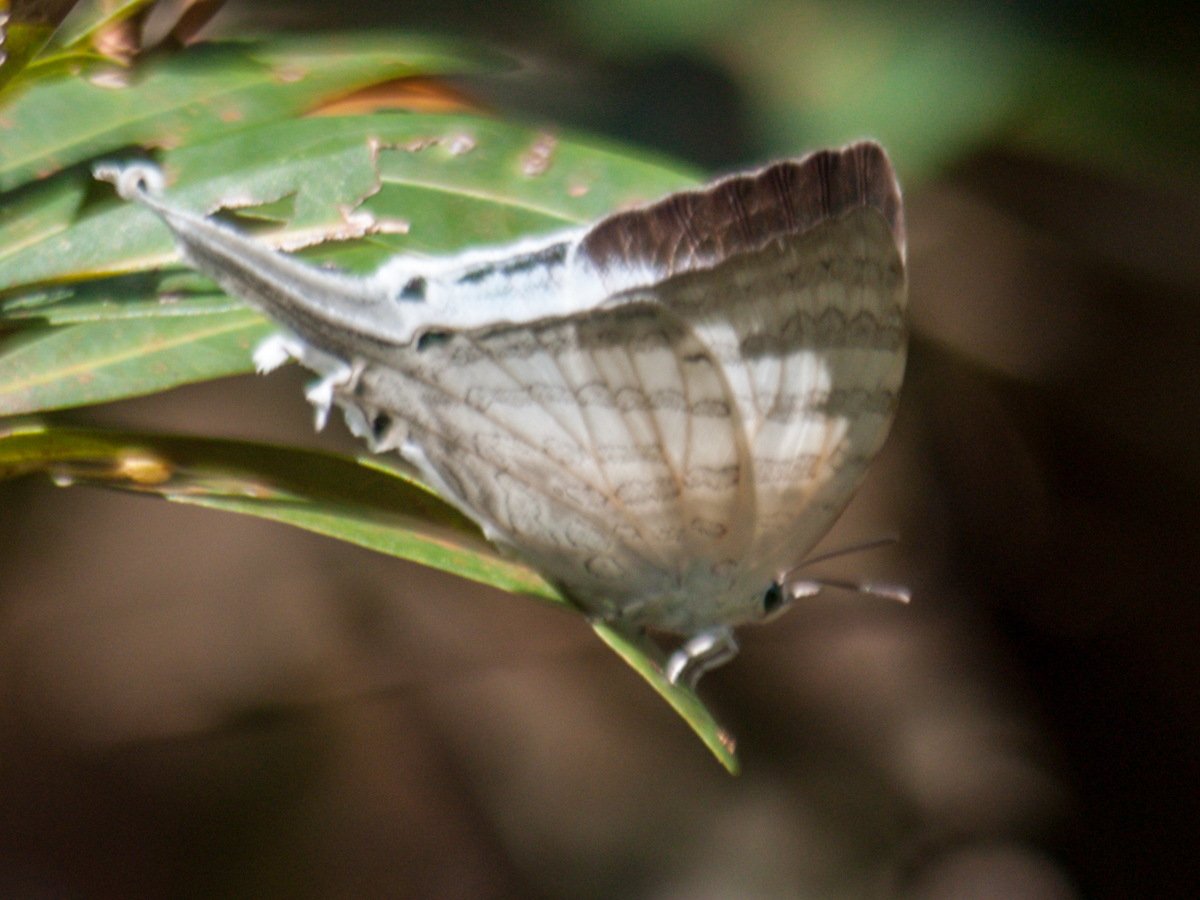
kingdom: Animalia
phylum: Arthropoda
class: Insecta
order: Lepidoptera
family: Lycaenidae
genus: Neomyrina
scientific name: Neomyrina hiemalis
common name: White imperial
